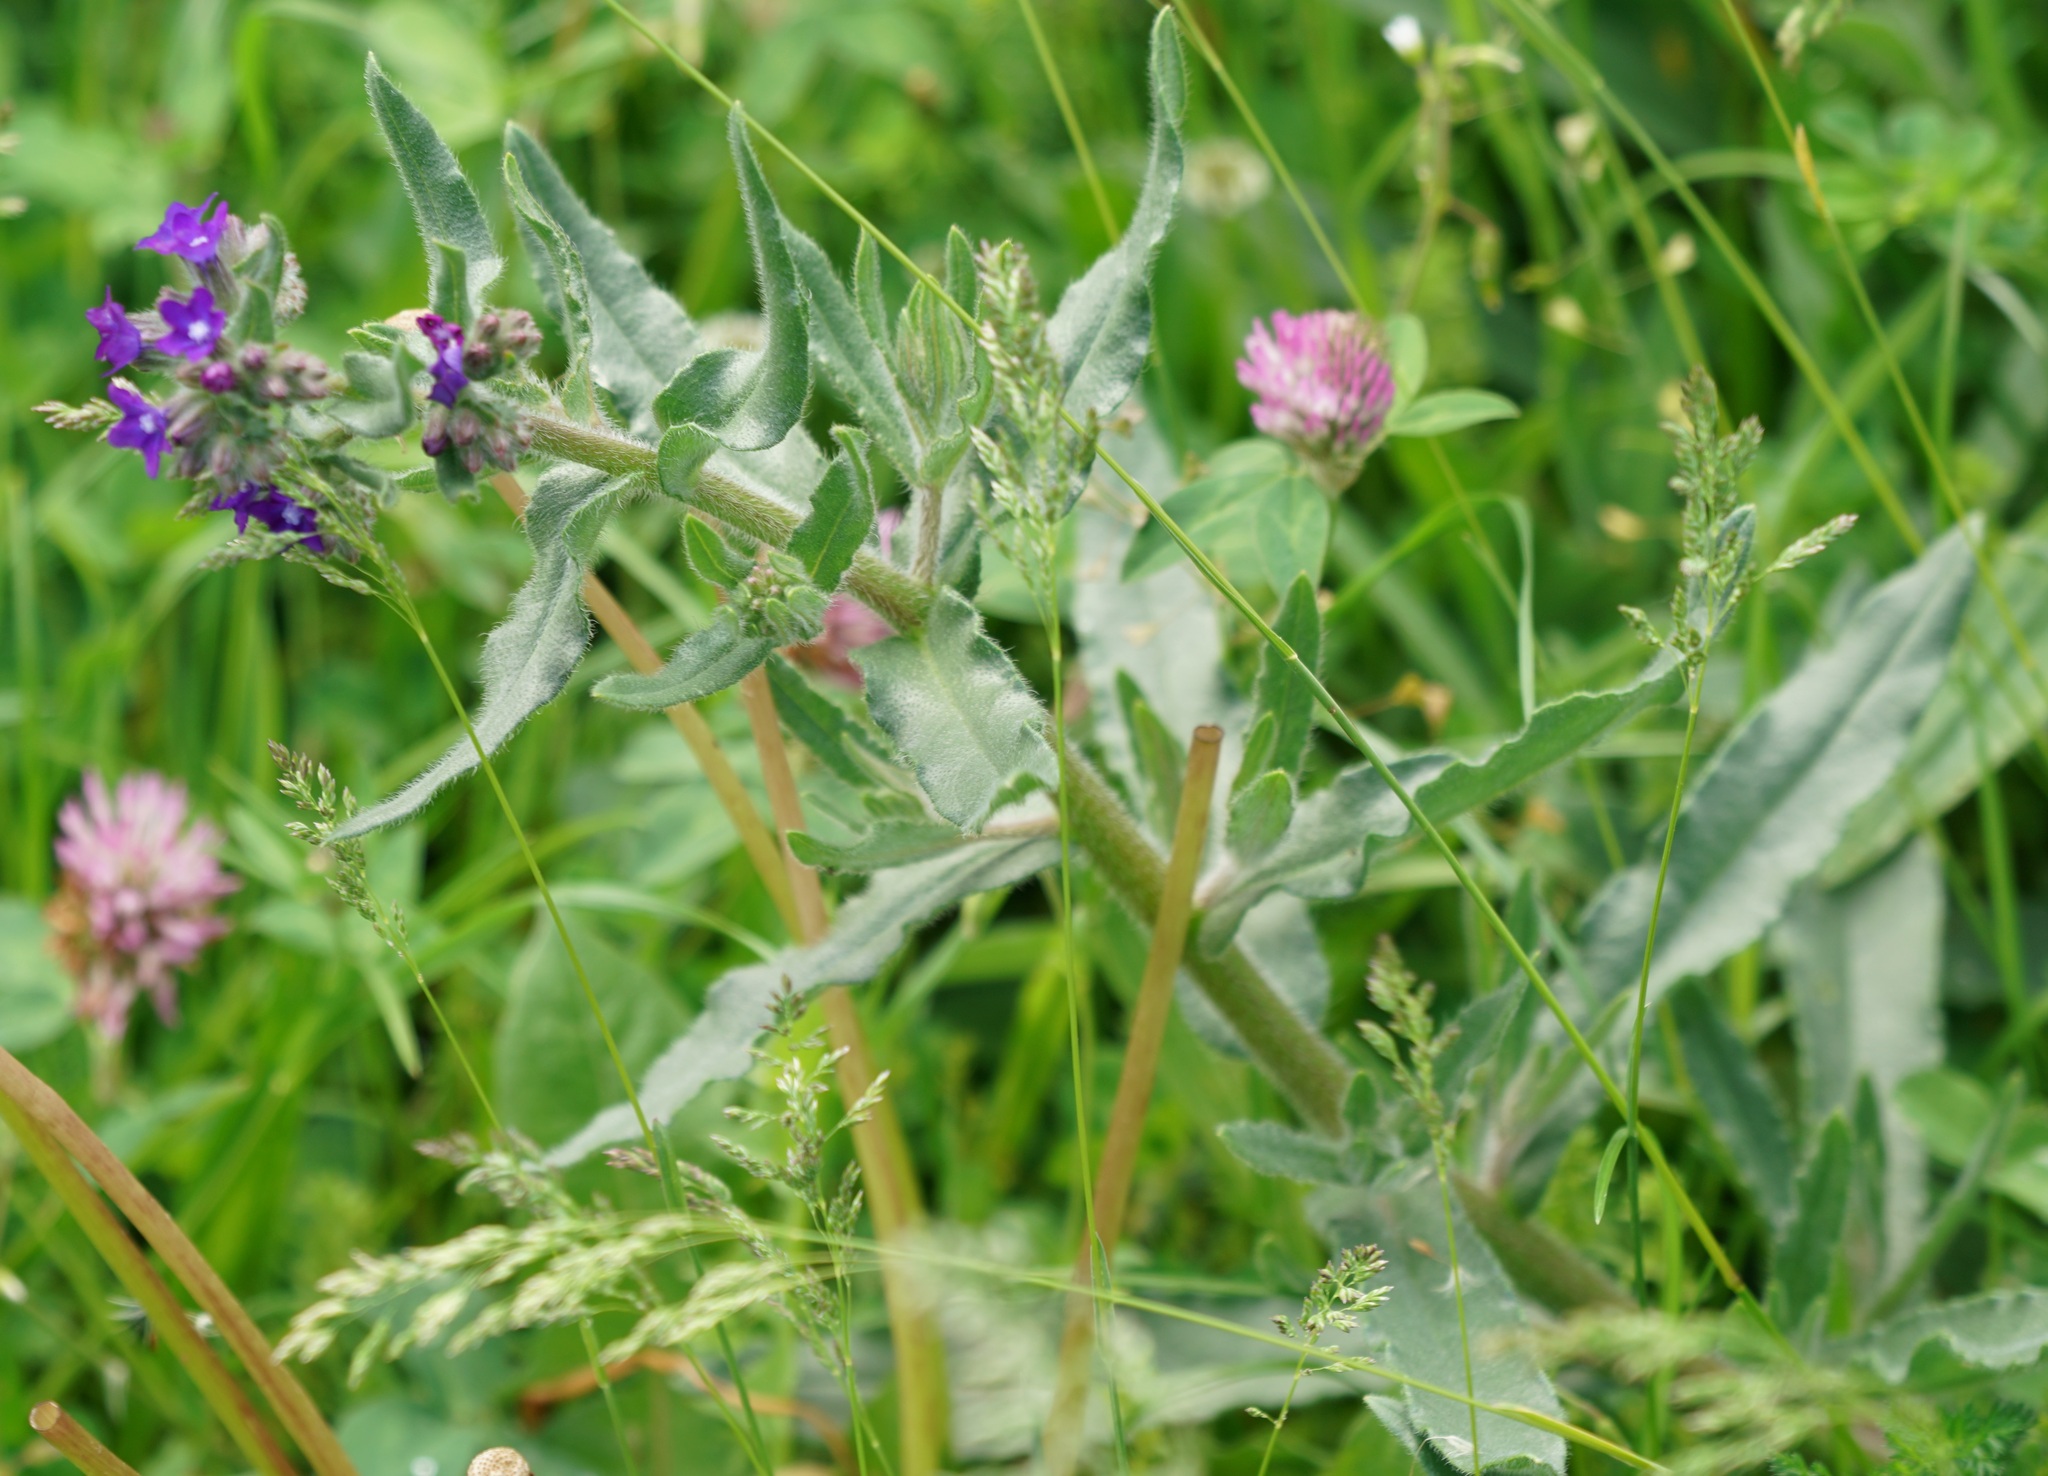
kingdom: Plantae
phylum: Tracheophyta
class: Magnoliopsida
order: Boraginales
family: Boraginaceae
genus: Anchusa
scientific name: Anchusa officinalis
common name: Alkanet
